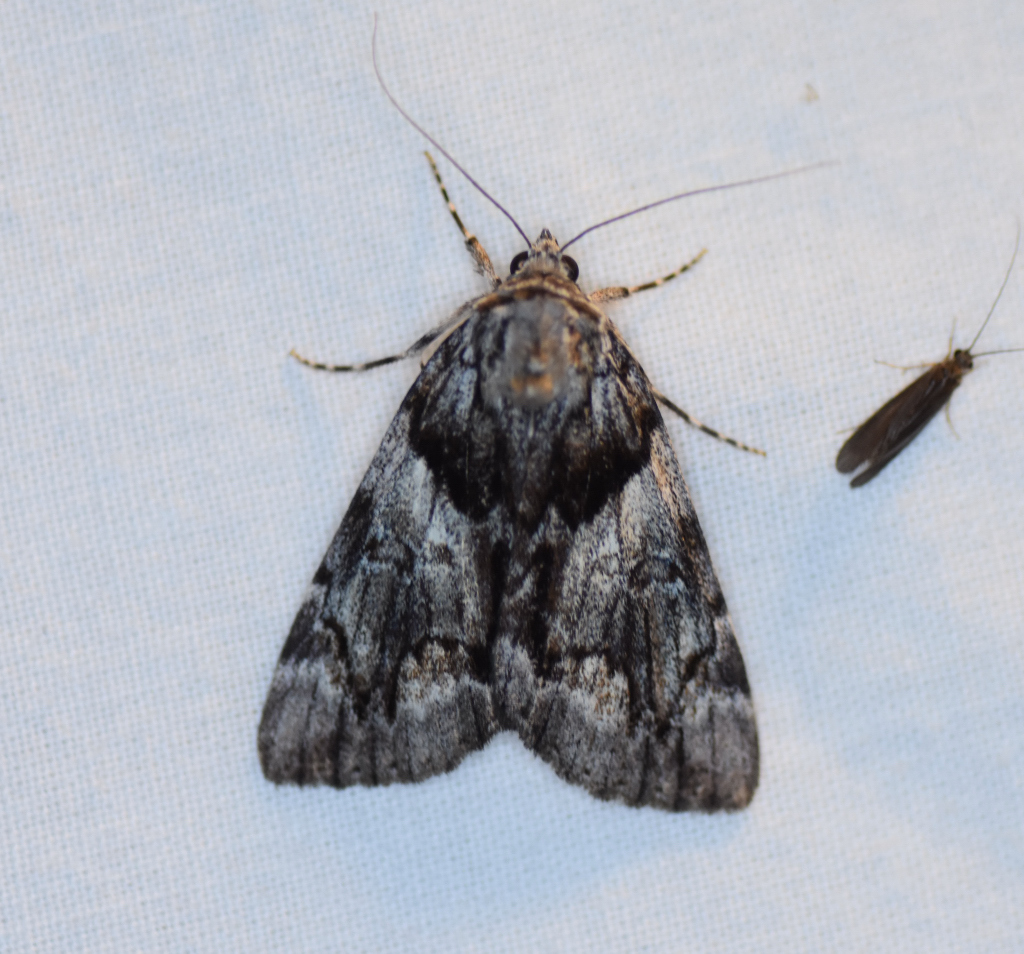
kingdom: Animalia
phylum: Arthropoda
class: Insecta
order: Lepidoptera
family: Erebidae
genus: Catocala
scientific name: Catocala blandula
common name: Charming underwing
